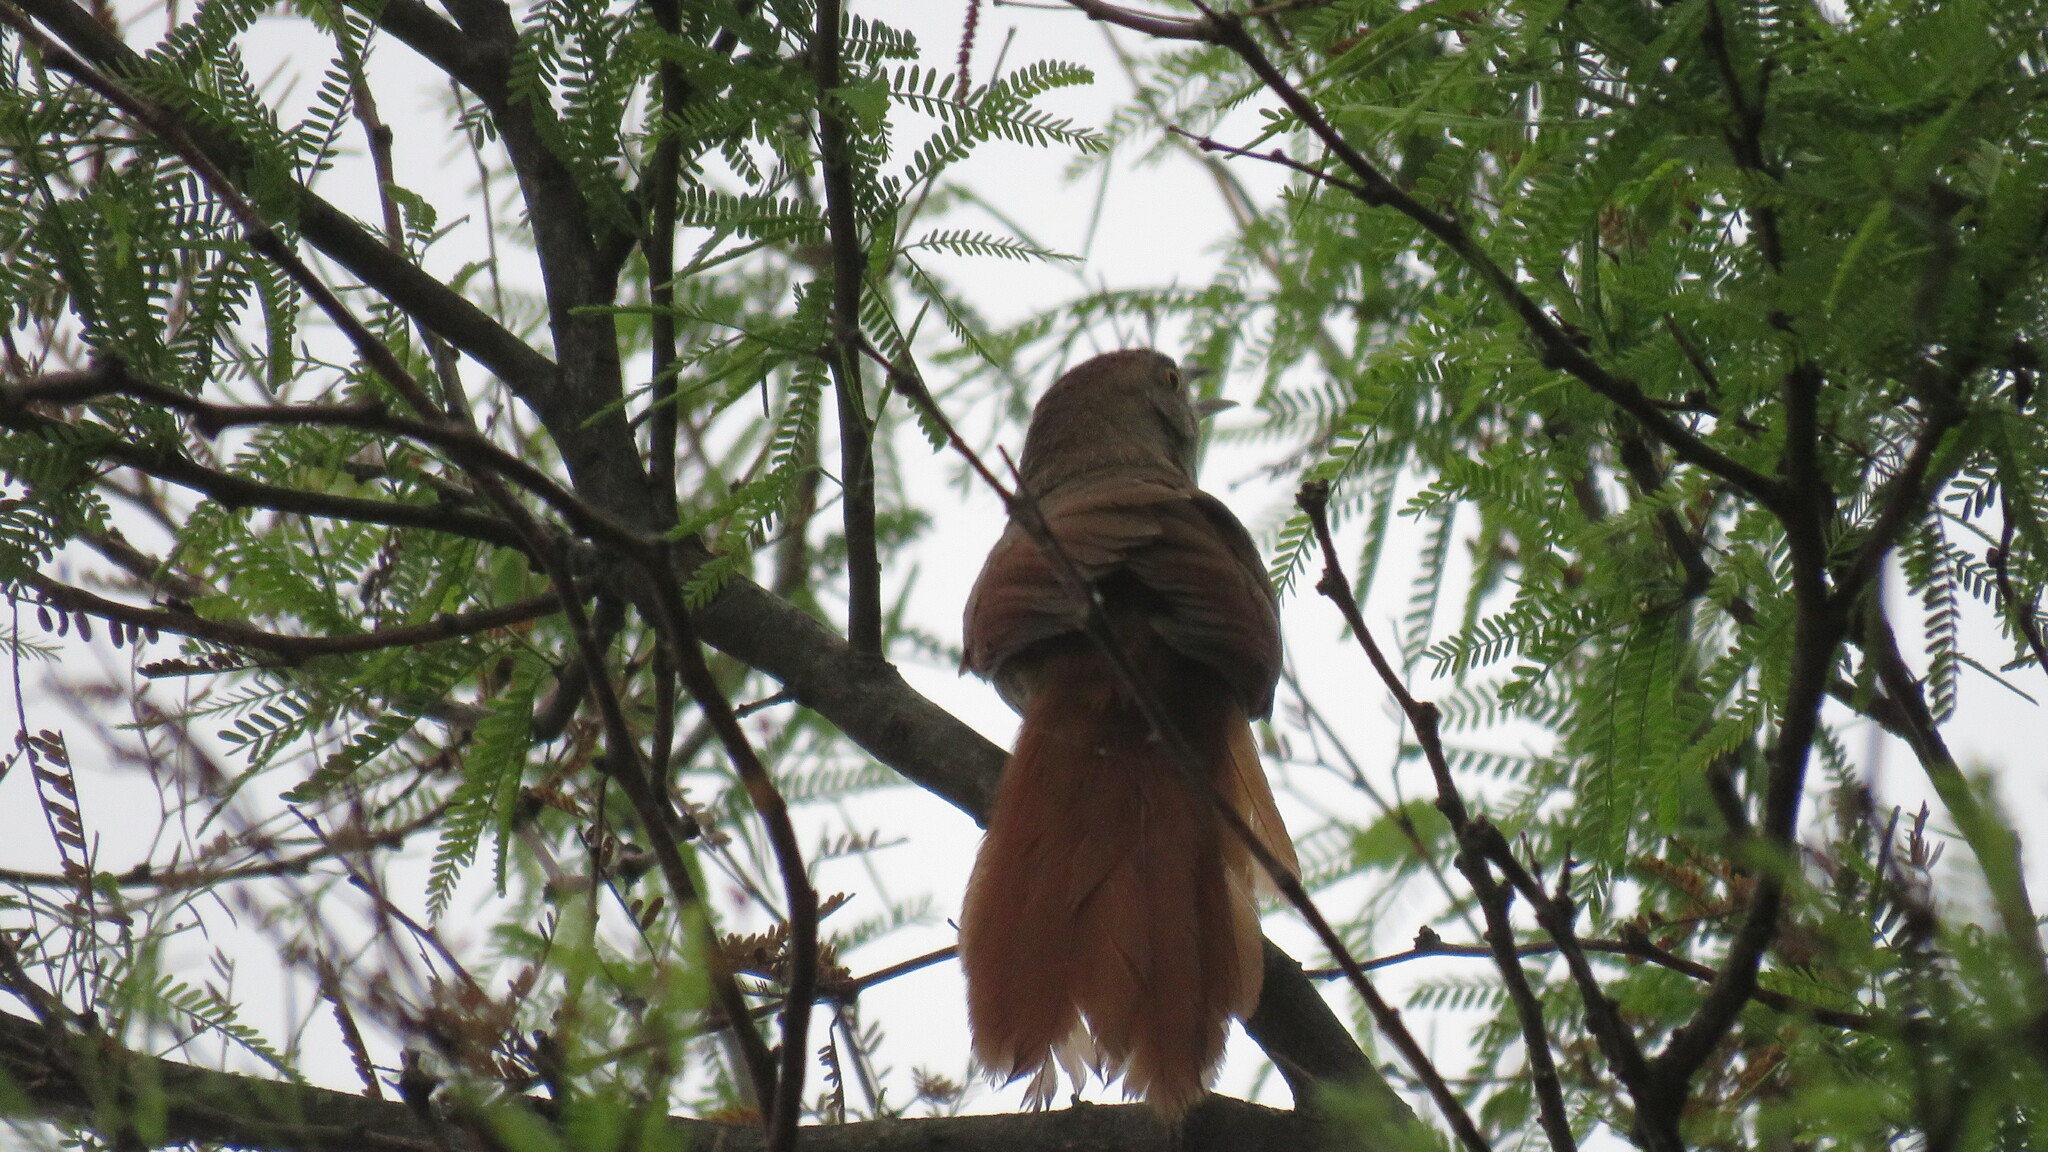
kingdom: Animalia
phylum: Chordata
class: Aves
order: Passeriformes
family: Furnariidae
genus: Phacellodomus
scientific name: Phacellodomus ruber
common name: Greater thornbird
